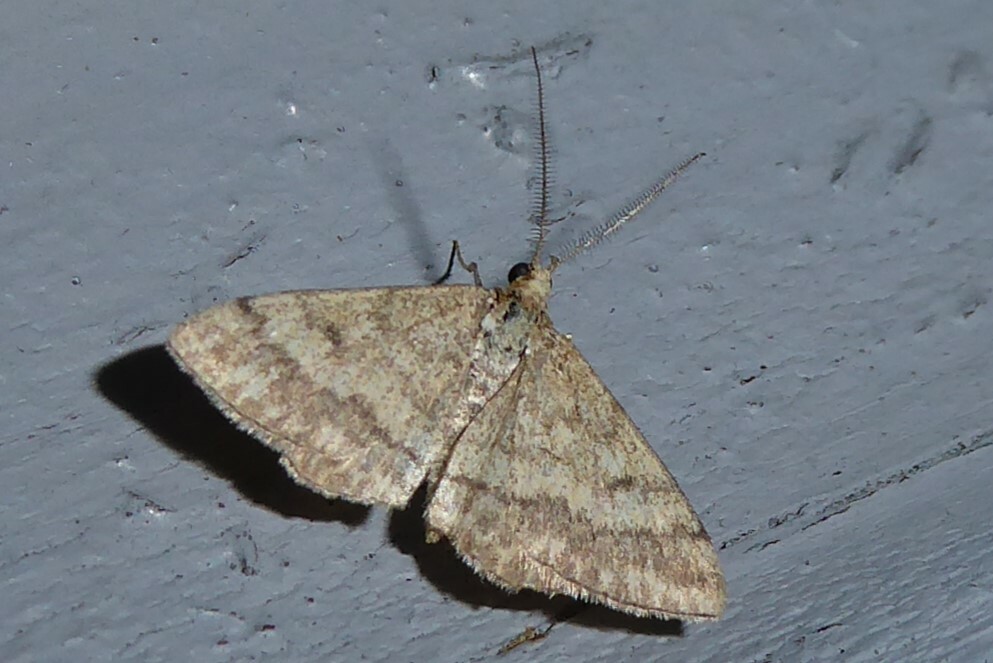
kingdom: Animalia
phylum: Arthropoda
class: Insecta
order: Lepidoptera
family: Geometridae
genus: Scopula
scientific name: Scopula rubraria
